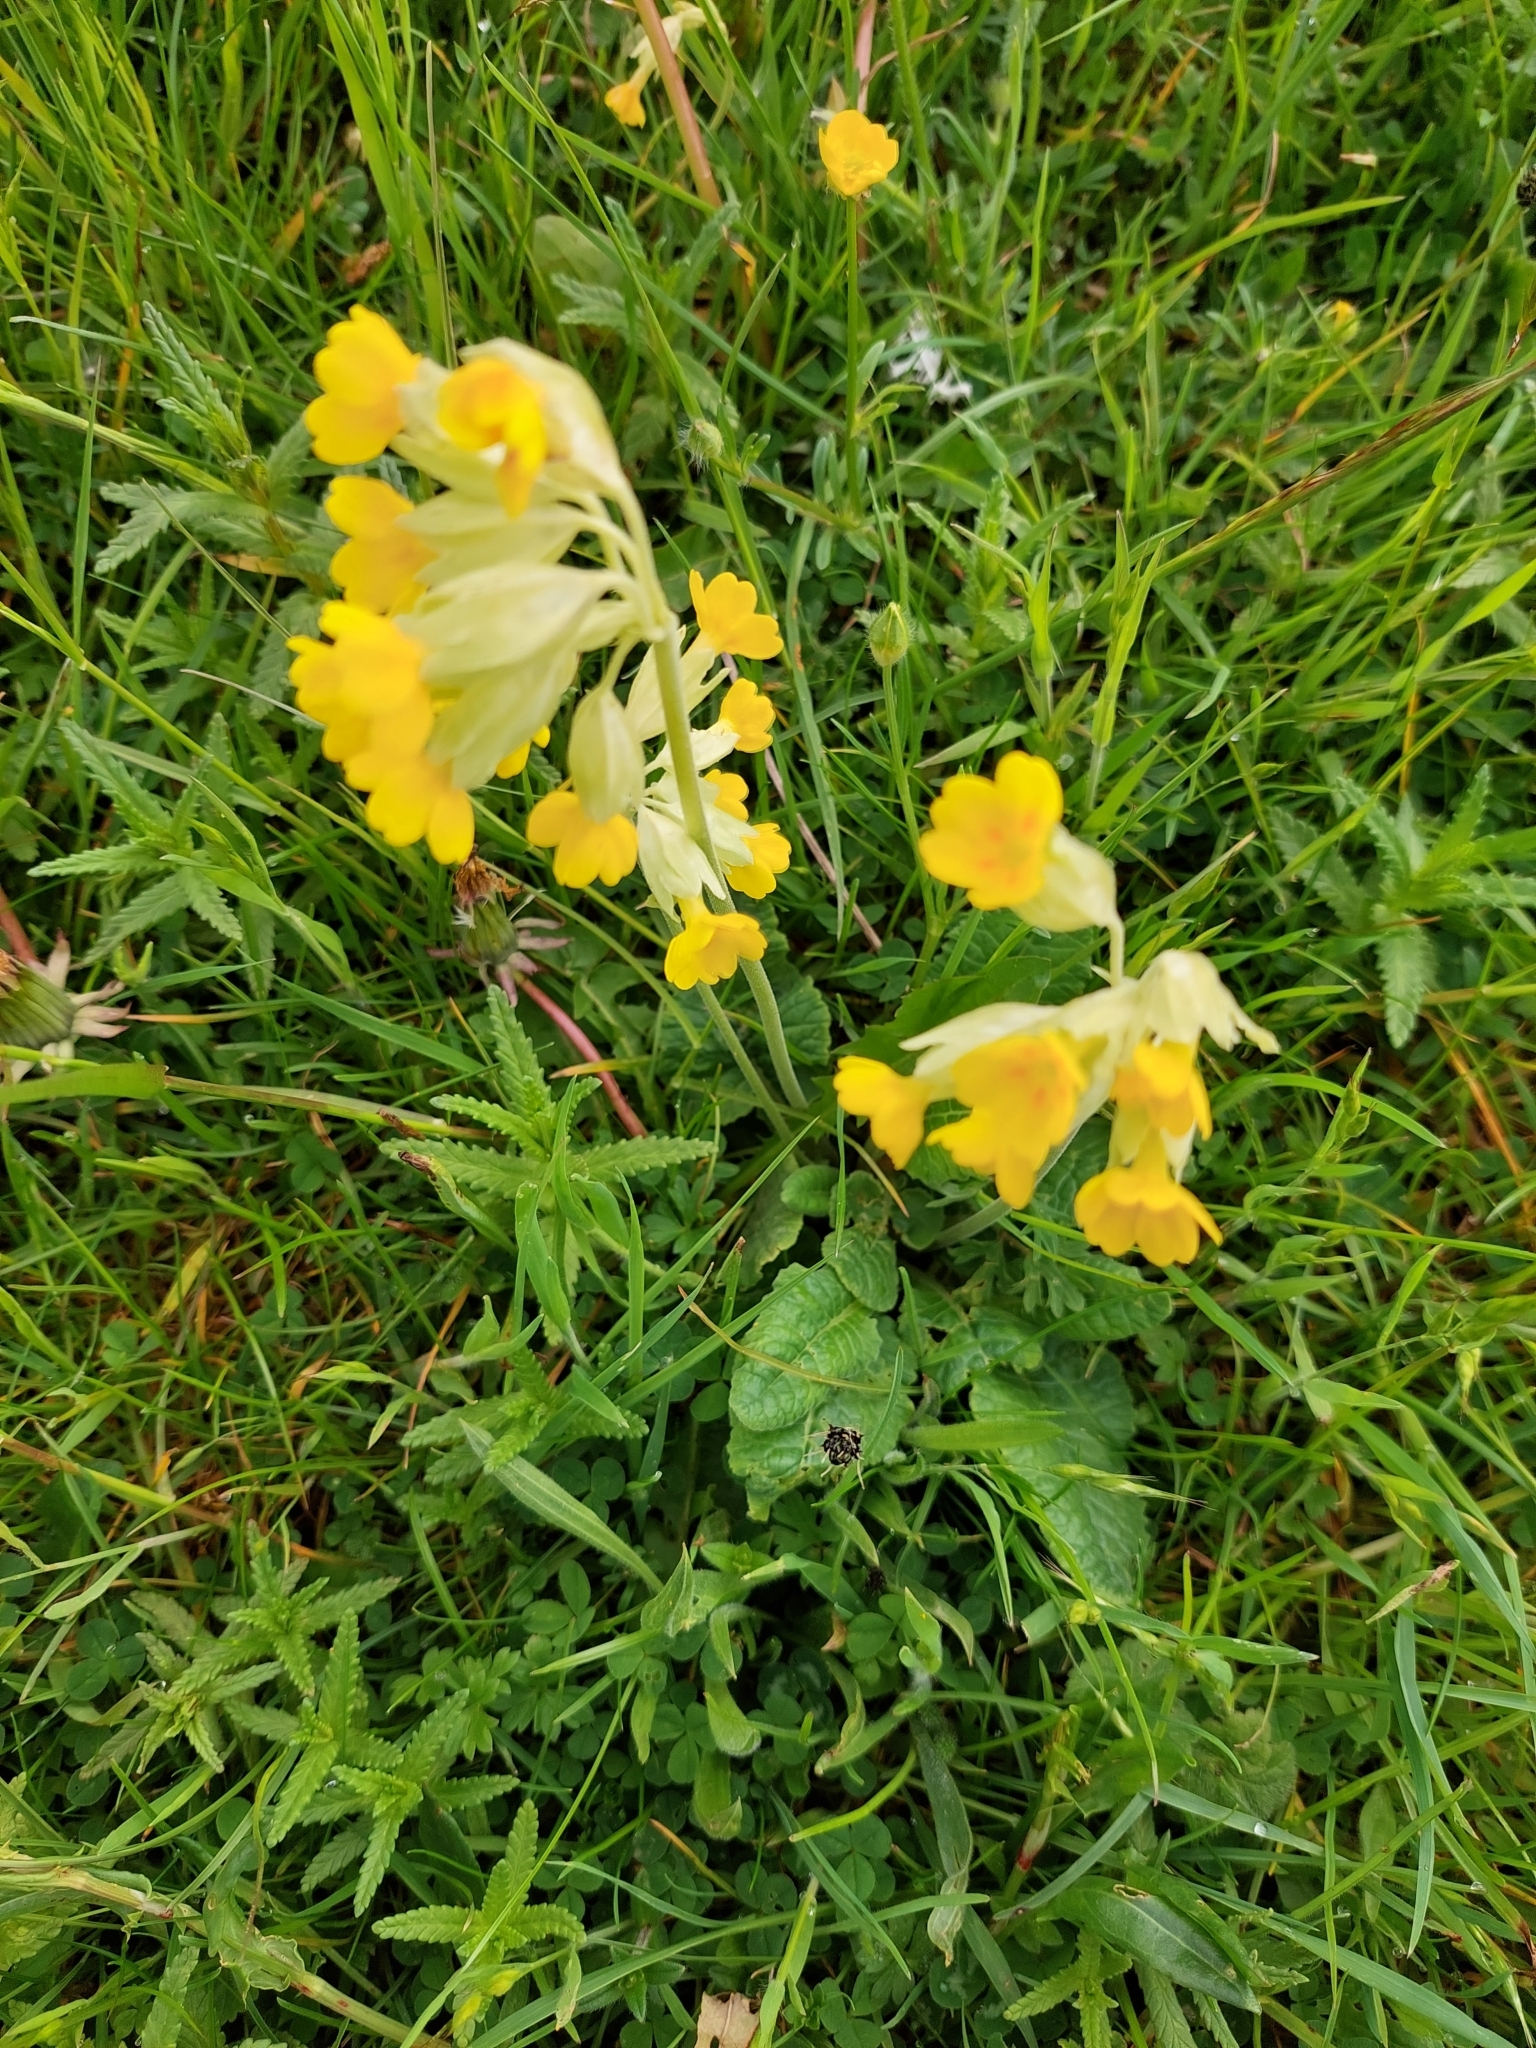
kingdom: Plantae
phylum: Tracheophyta
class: Magnoliopsida
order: Ericales
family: Primulaceae
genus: Primula
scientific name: Primula veris
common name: Cowslip
